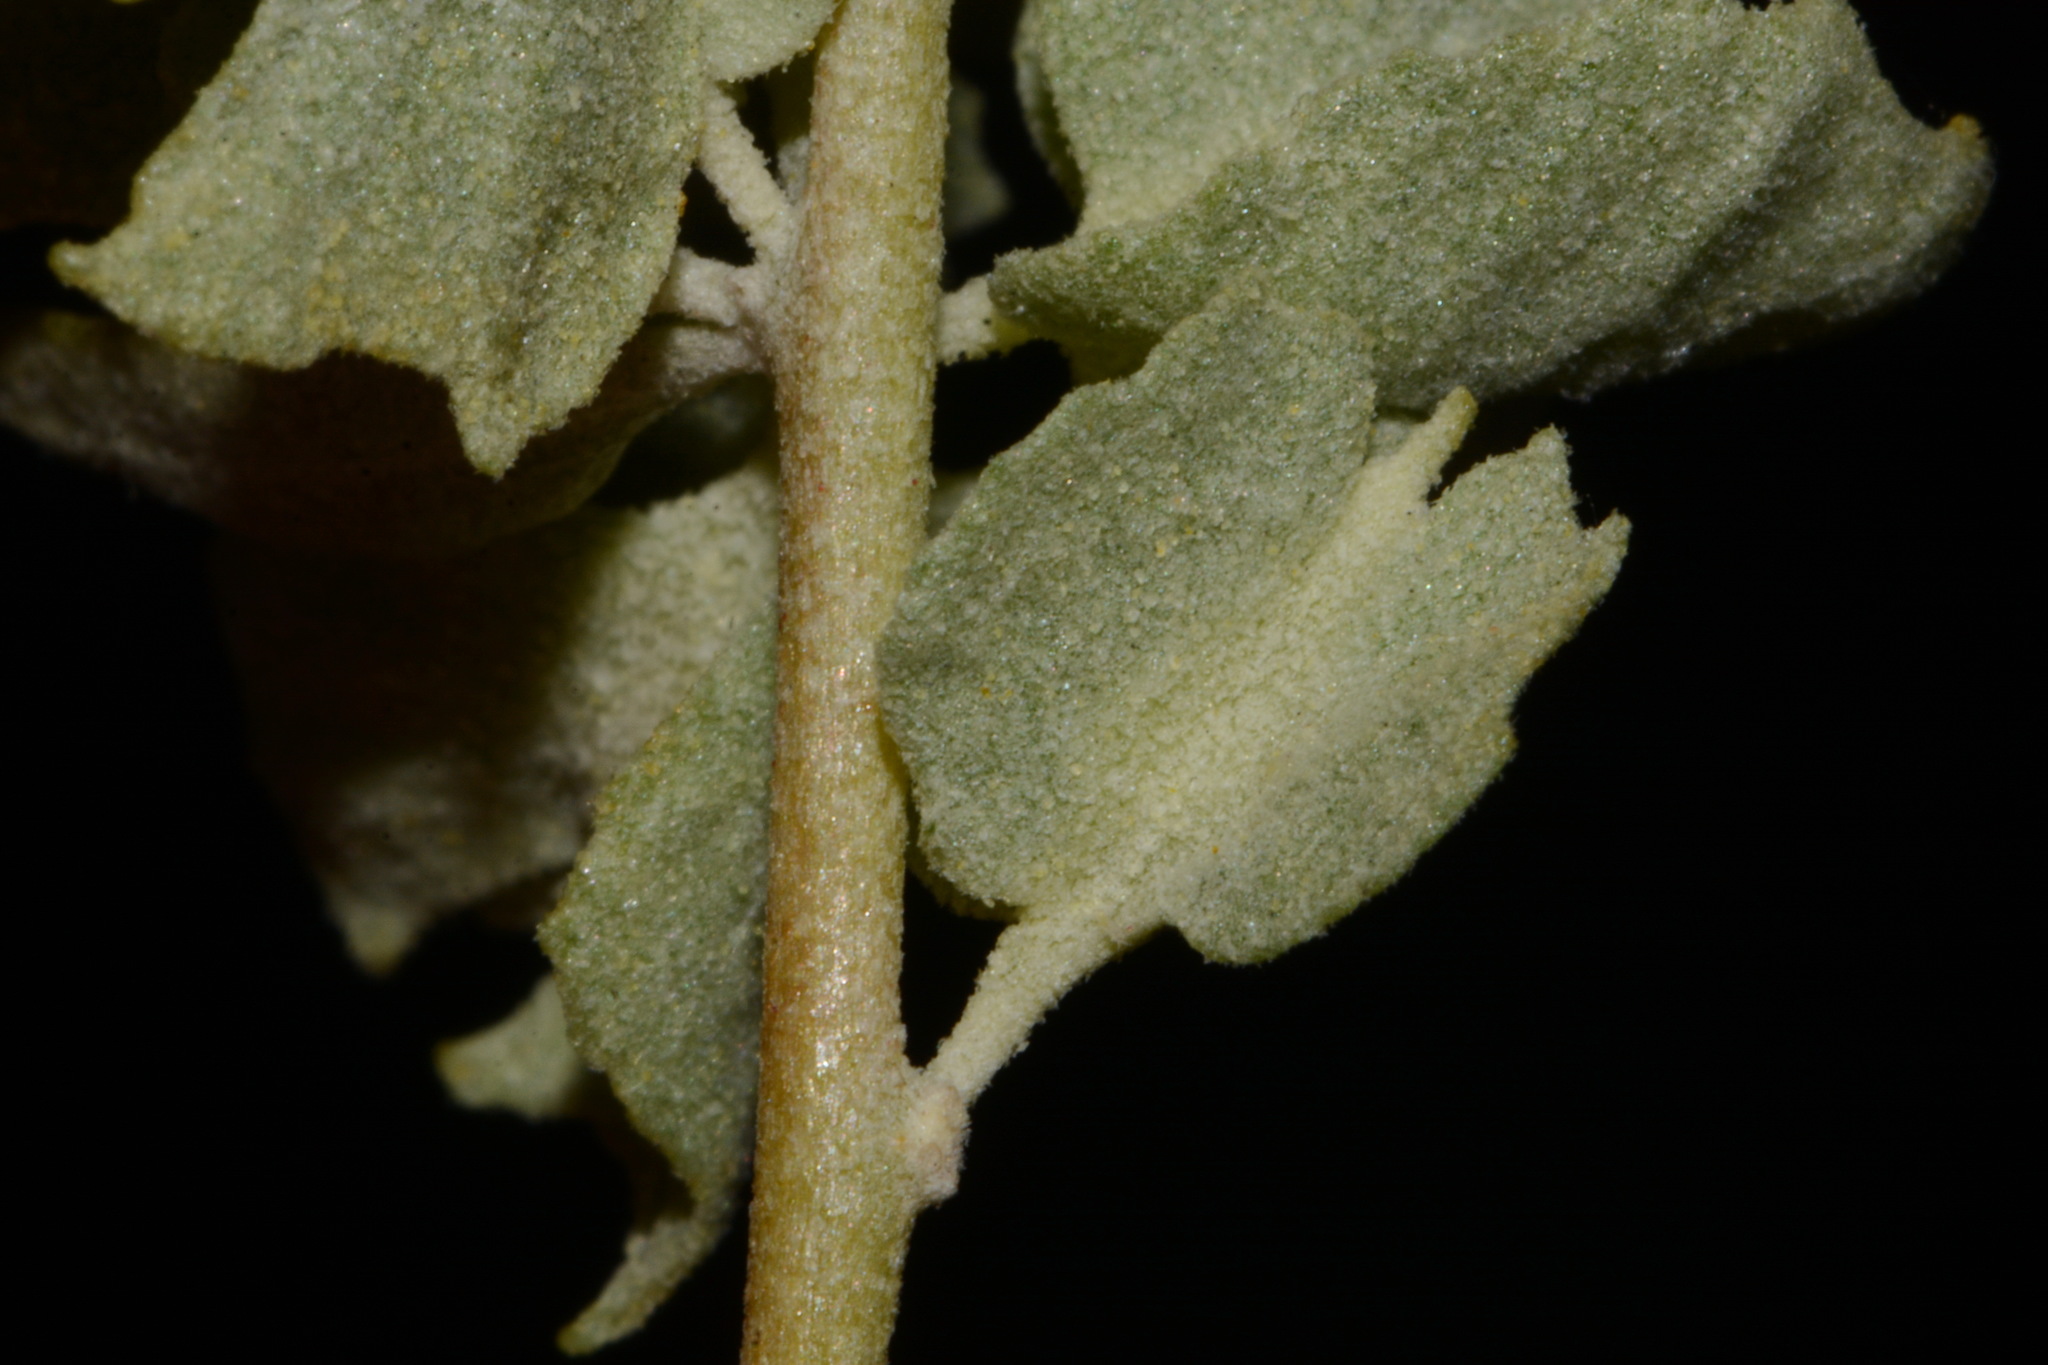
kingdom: Plantae
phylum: Tracheophyta
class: Magnoliopsida
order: Caryophyllales
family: Amaranthaceae
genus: Atriplex
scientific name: Atriplex canescens
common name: Four-wing saltbush
